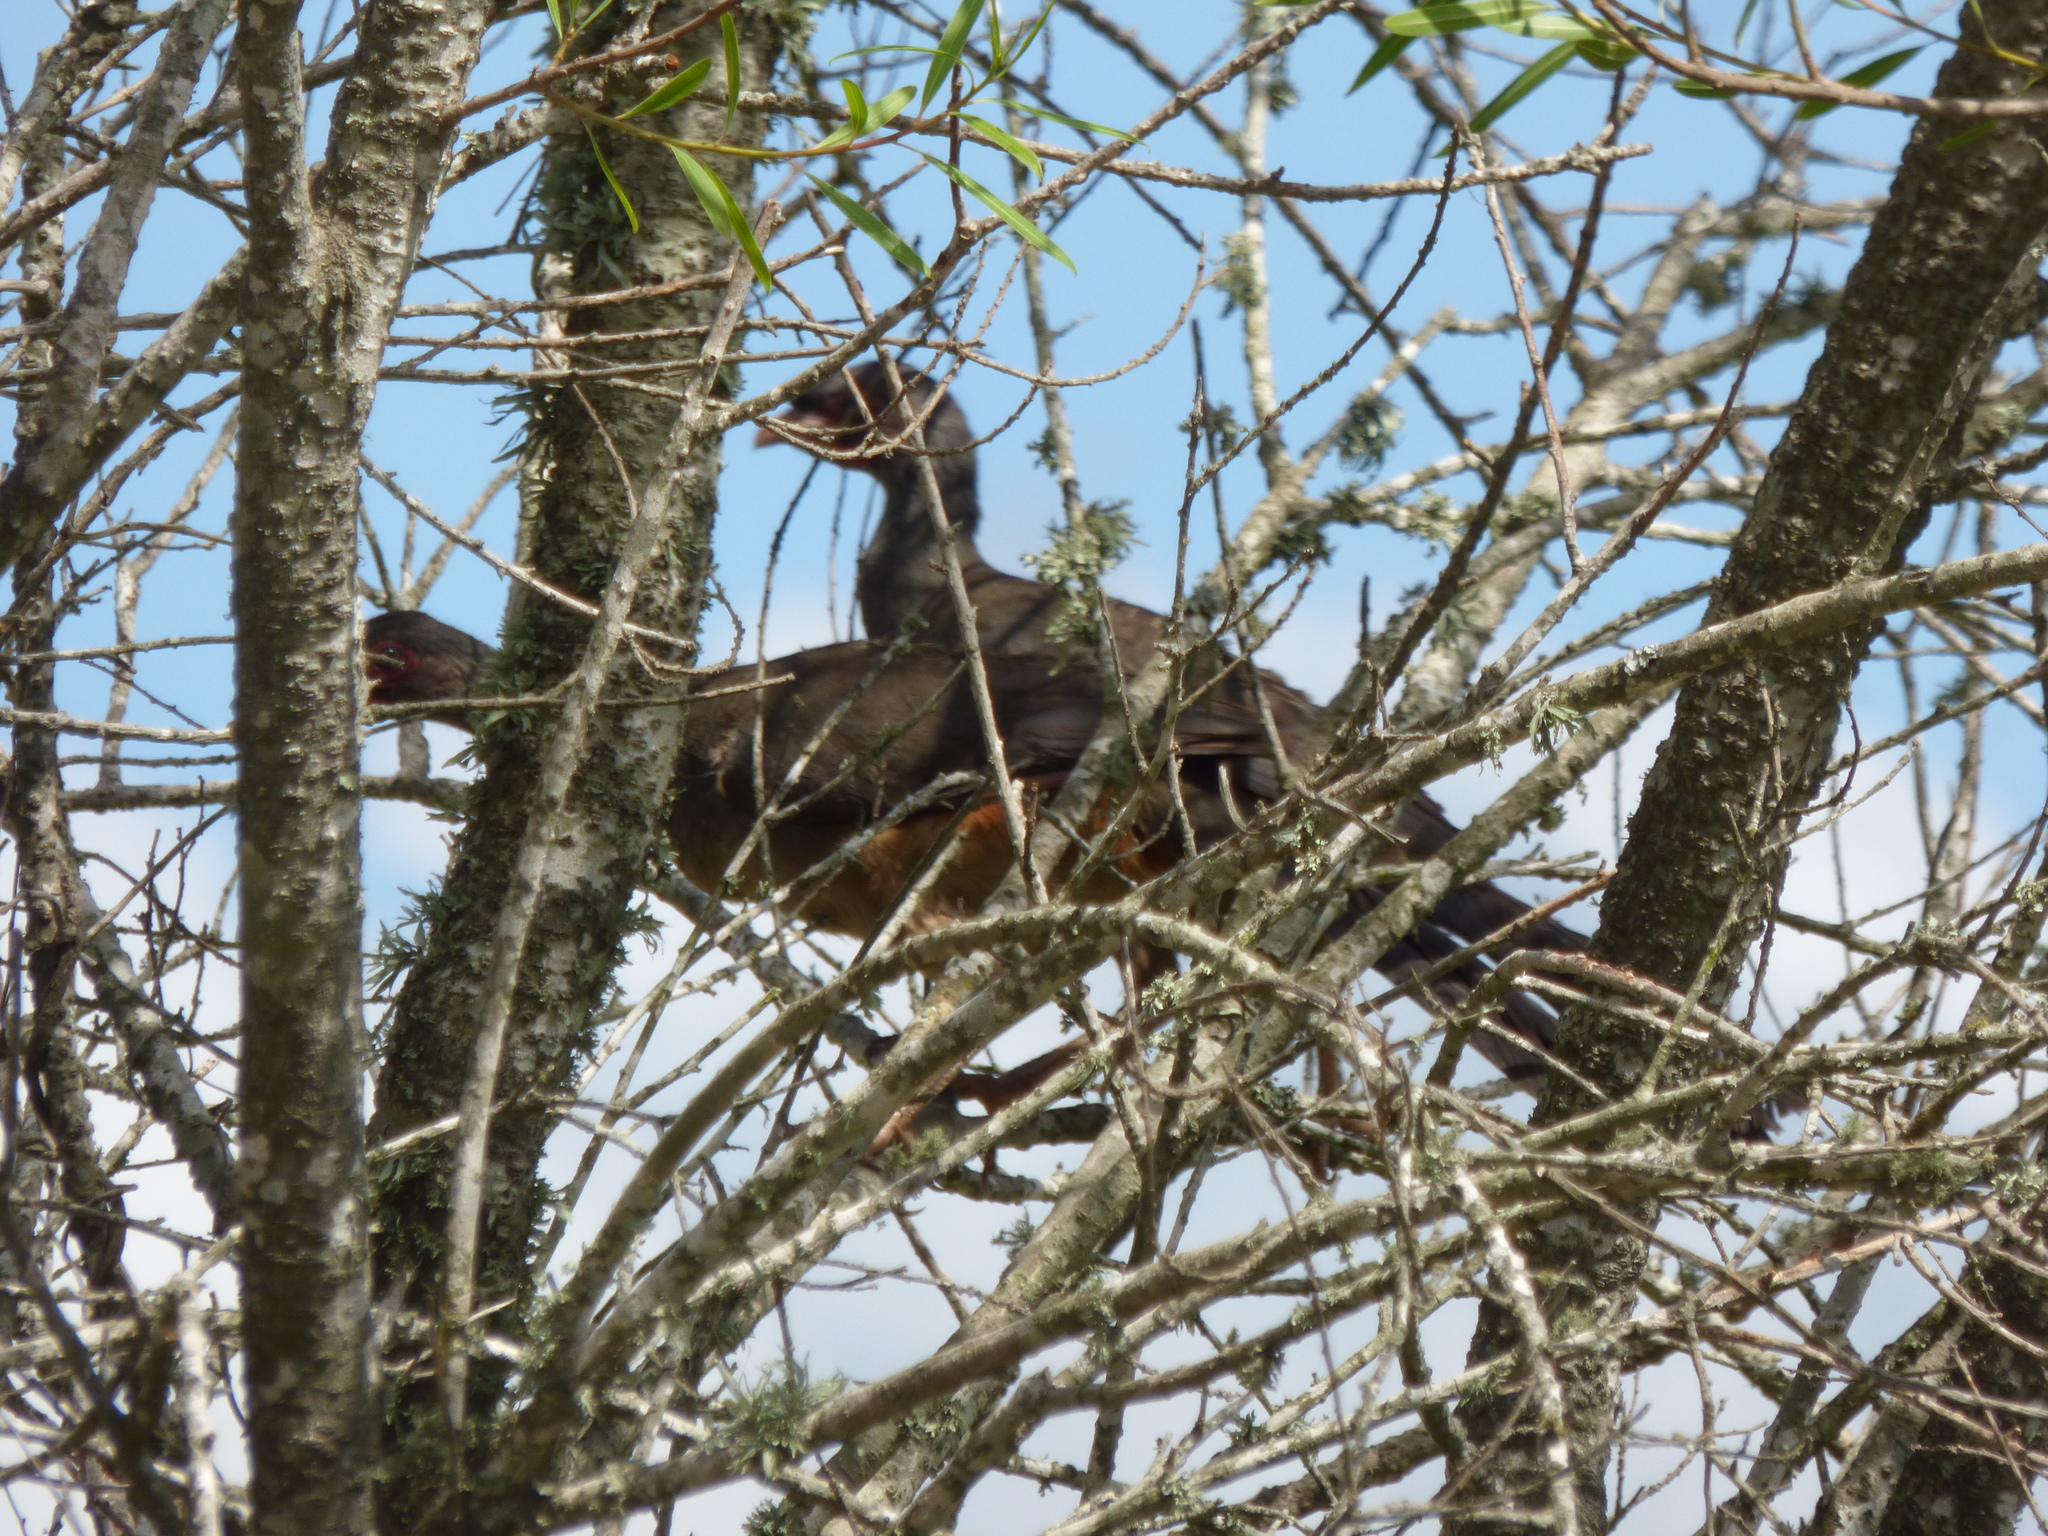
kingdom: Animalia
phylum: Chordata
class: Aves
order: Galliformes
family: Cracidae
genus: Ortalis
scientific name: Ortalis canicollis
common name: Chaco chachalaca
